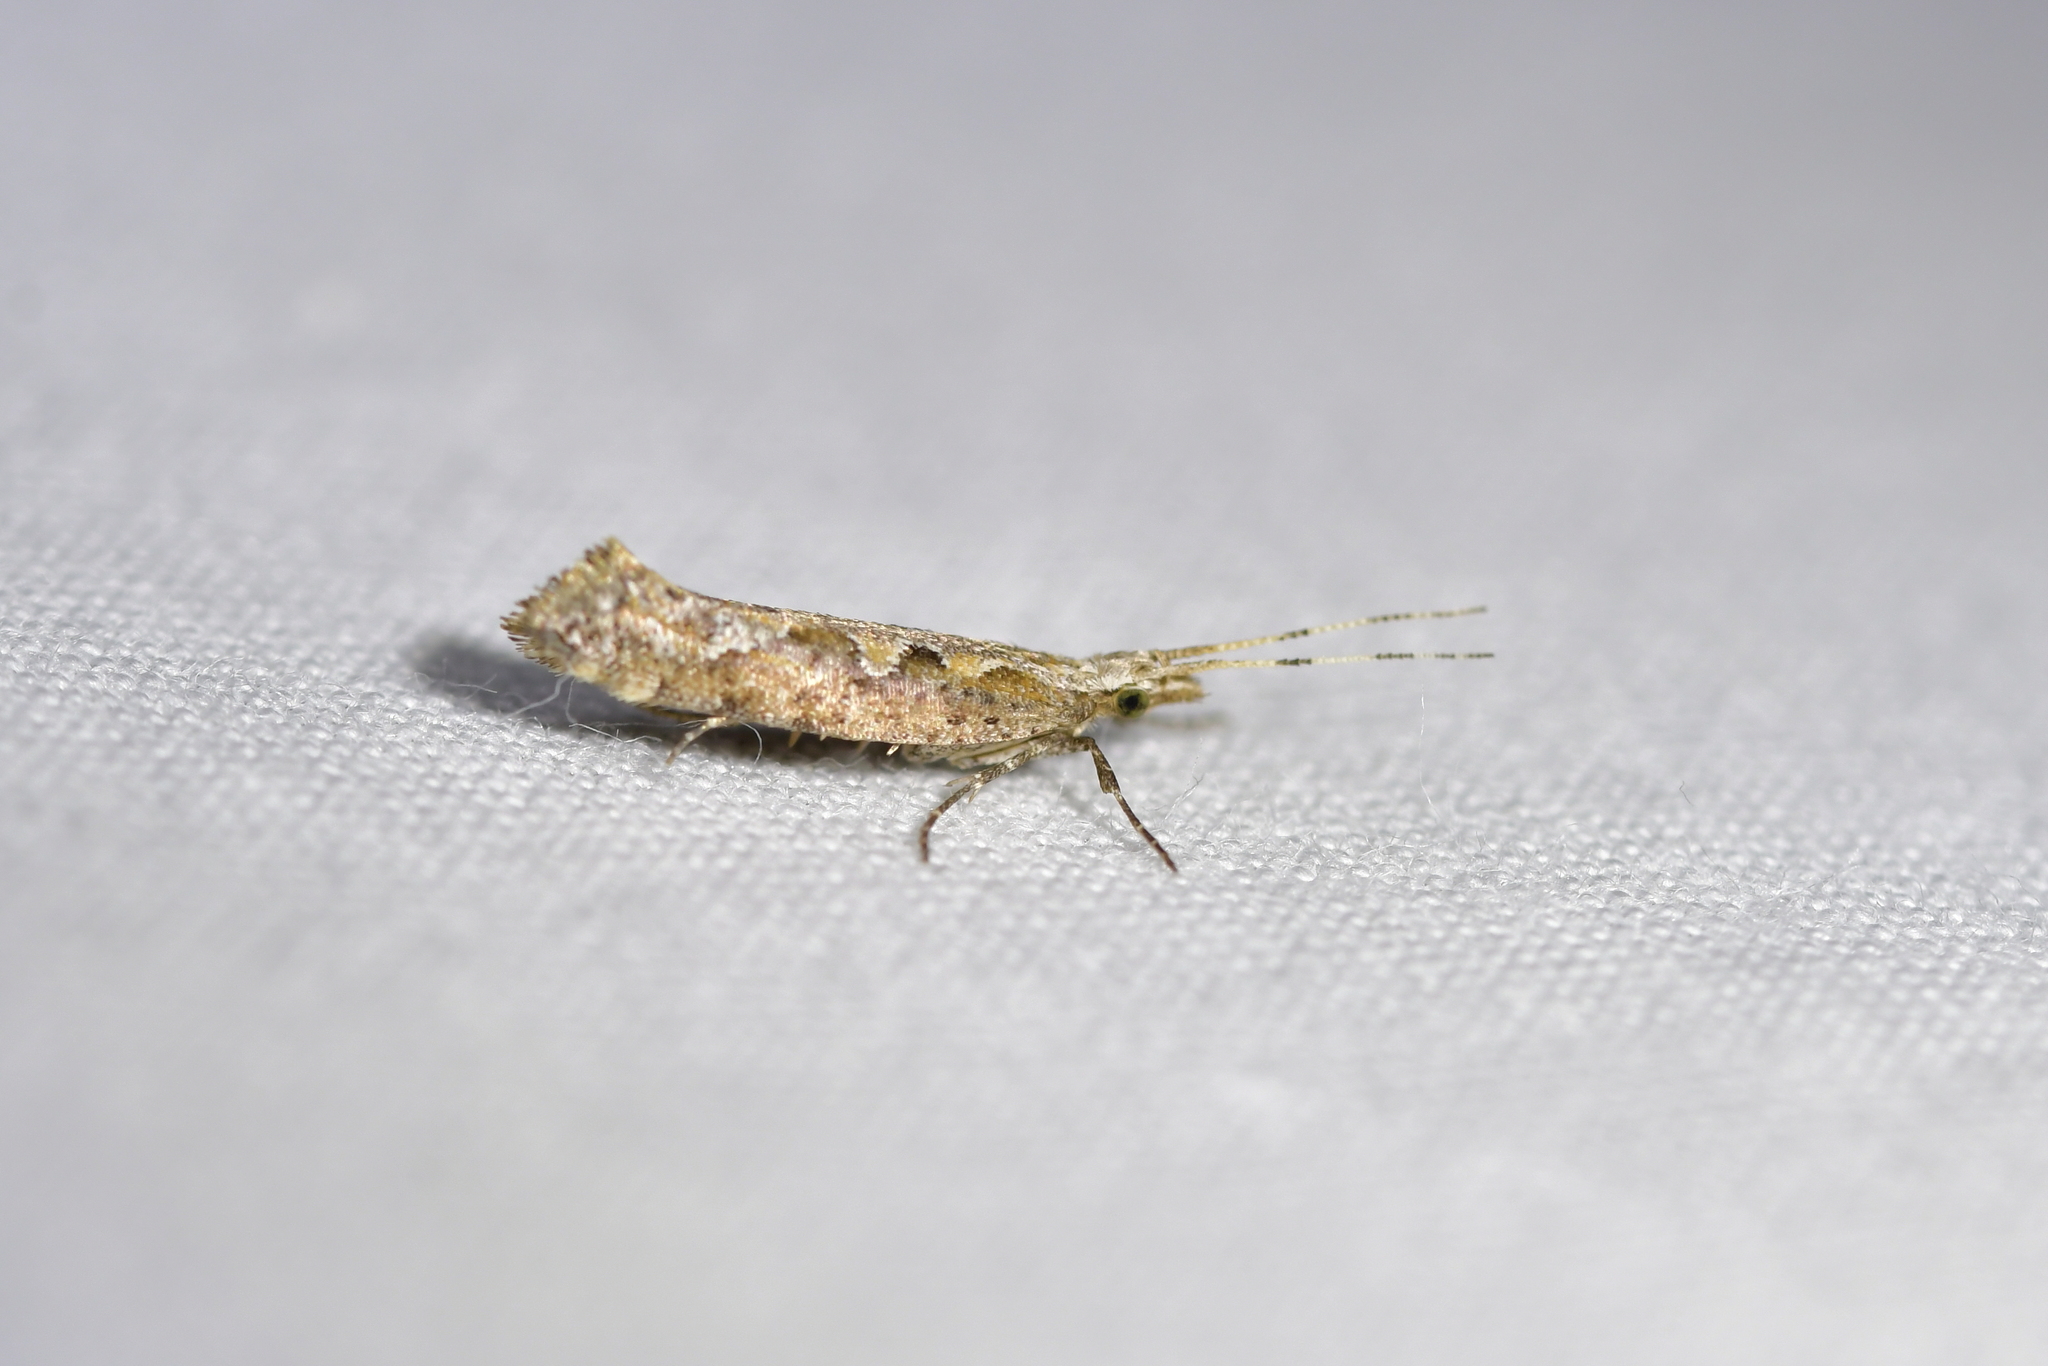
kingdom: Animalia
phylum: Arthropoda
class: Insecta
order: Lepidoptera
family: Plutellidae
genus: Plutella
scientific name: Plutella xylostella
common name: Diamond-back moth
